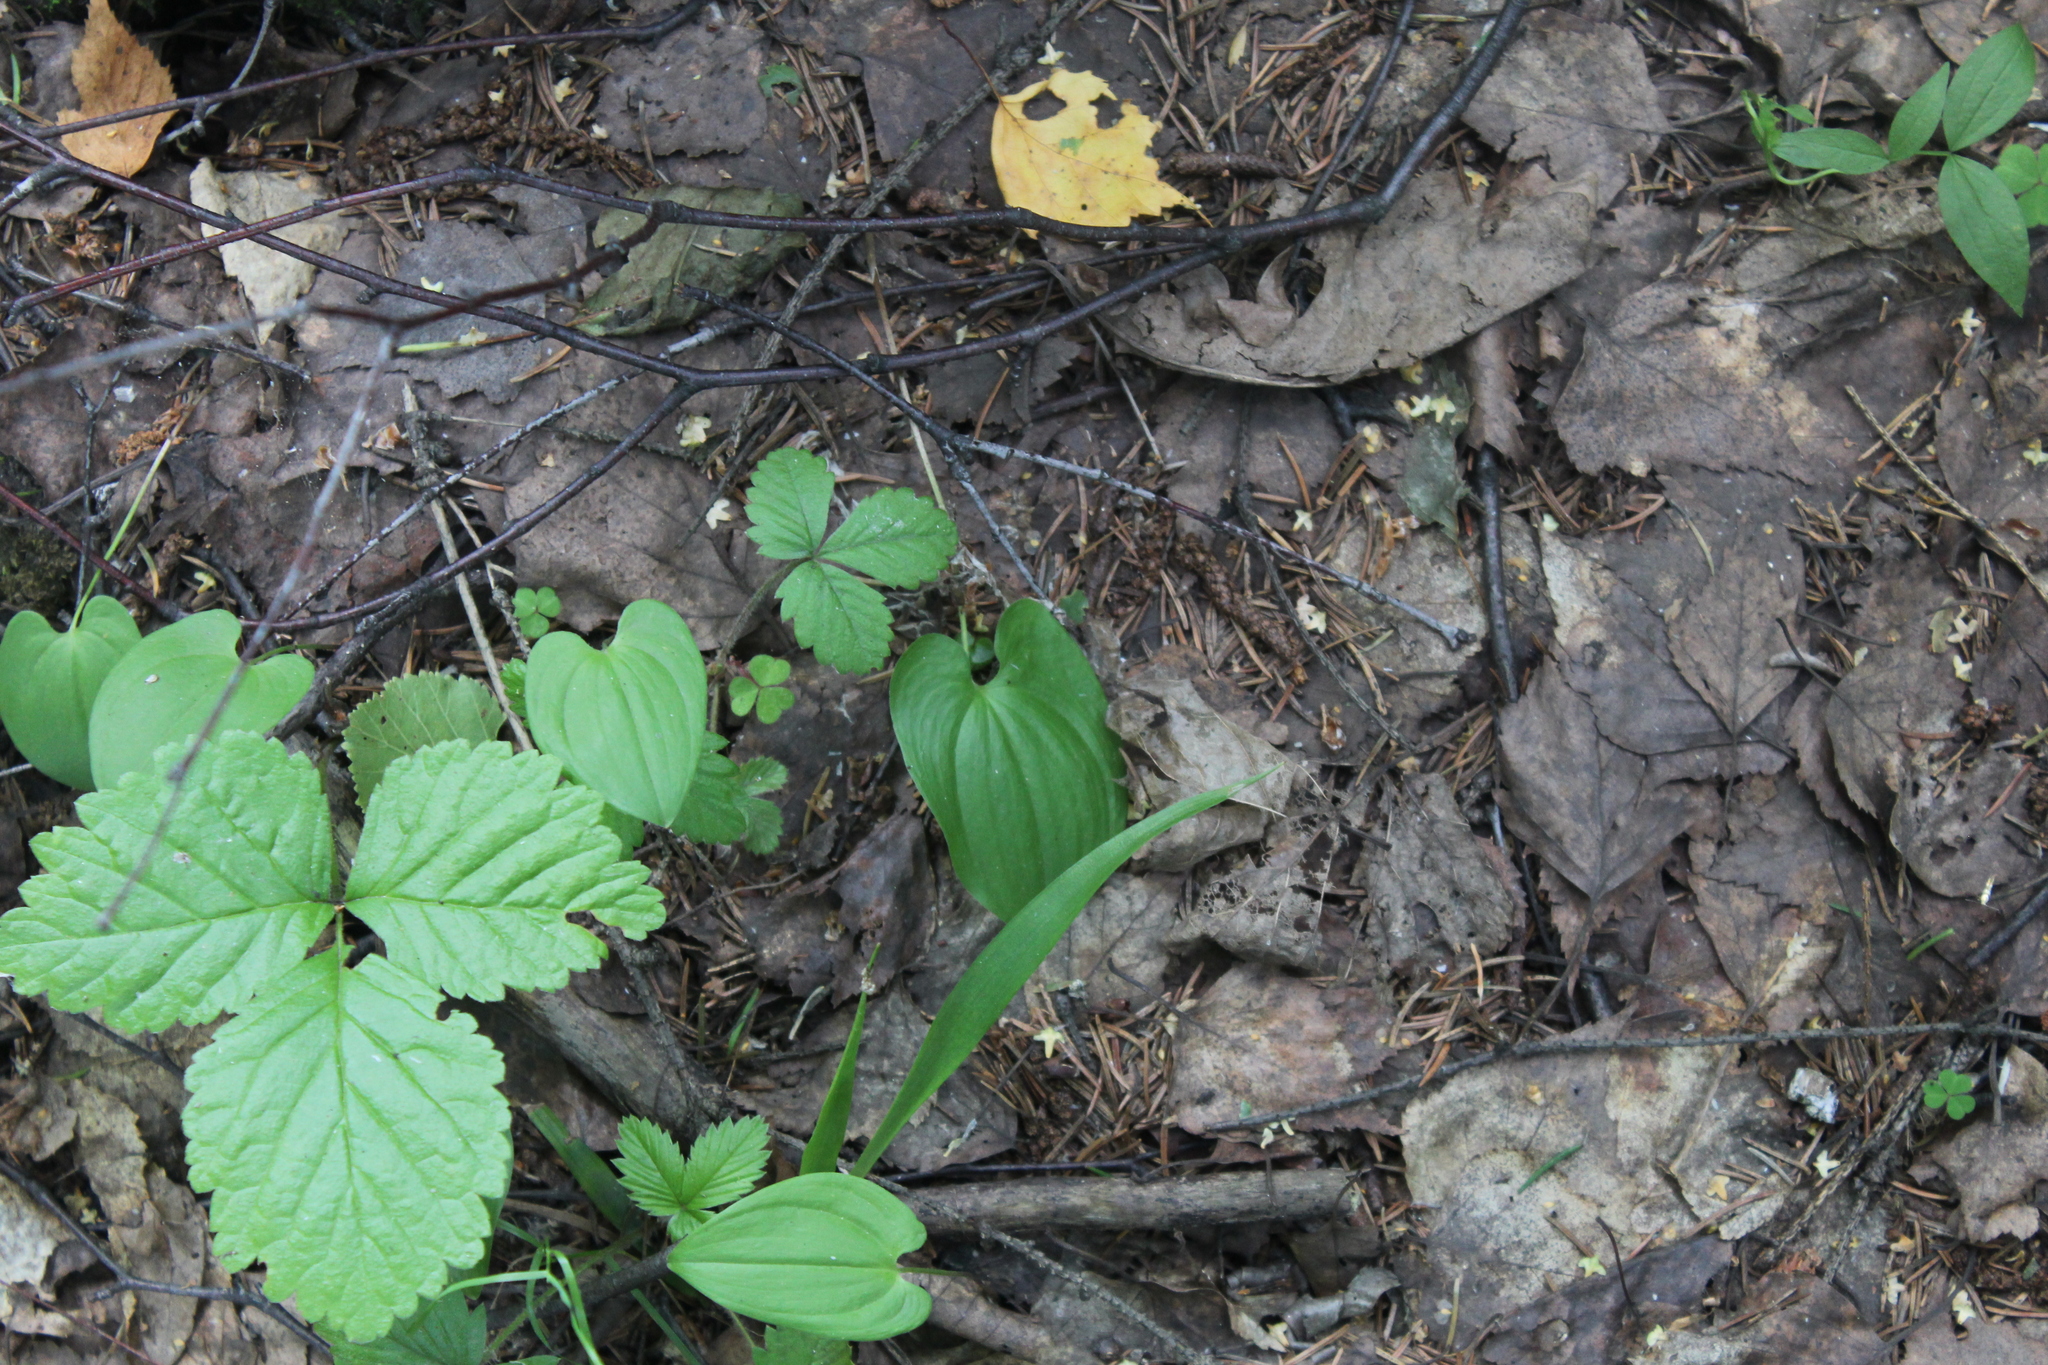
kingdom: Plantae
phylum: Tracheophyta
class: Liliopsida
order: Asparagales
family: Asparagaceae
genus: Maianthemum
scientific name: Maianthemum bifolium
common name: May lily
